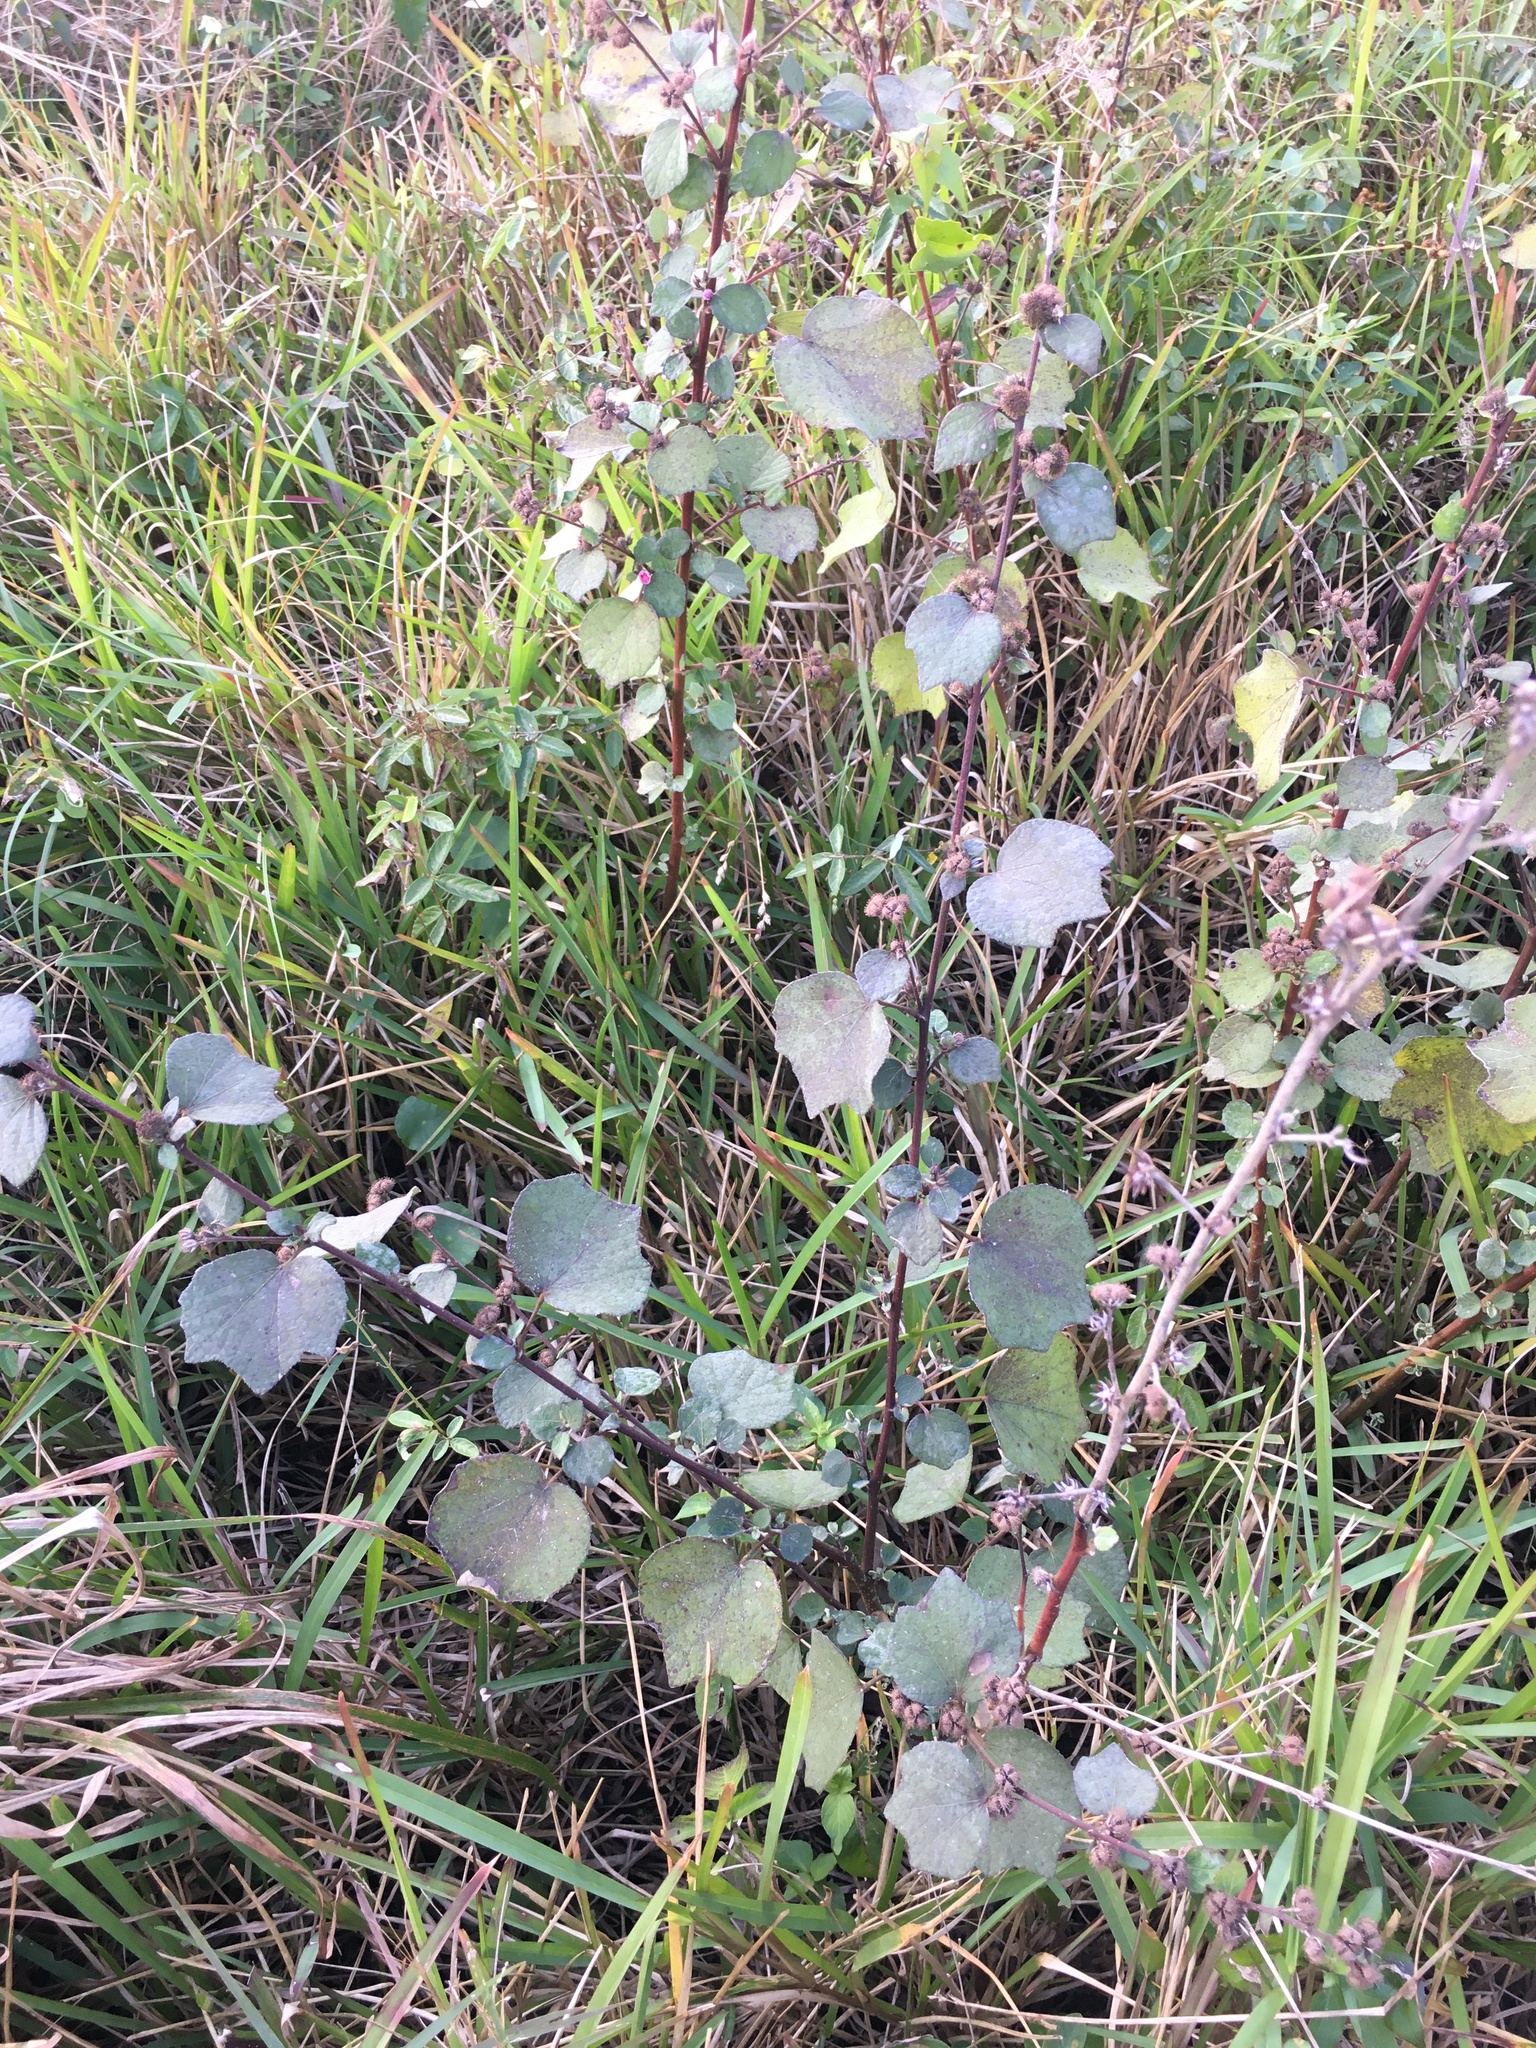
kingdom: Plantae
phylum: Tracheophyta
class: Magnoliopsida
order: Malvales
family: Malvaceae
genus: Urena
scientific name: Urena lobata
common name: Caesarweed
